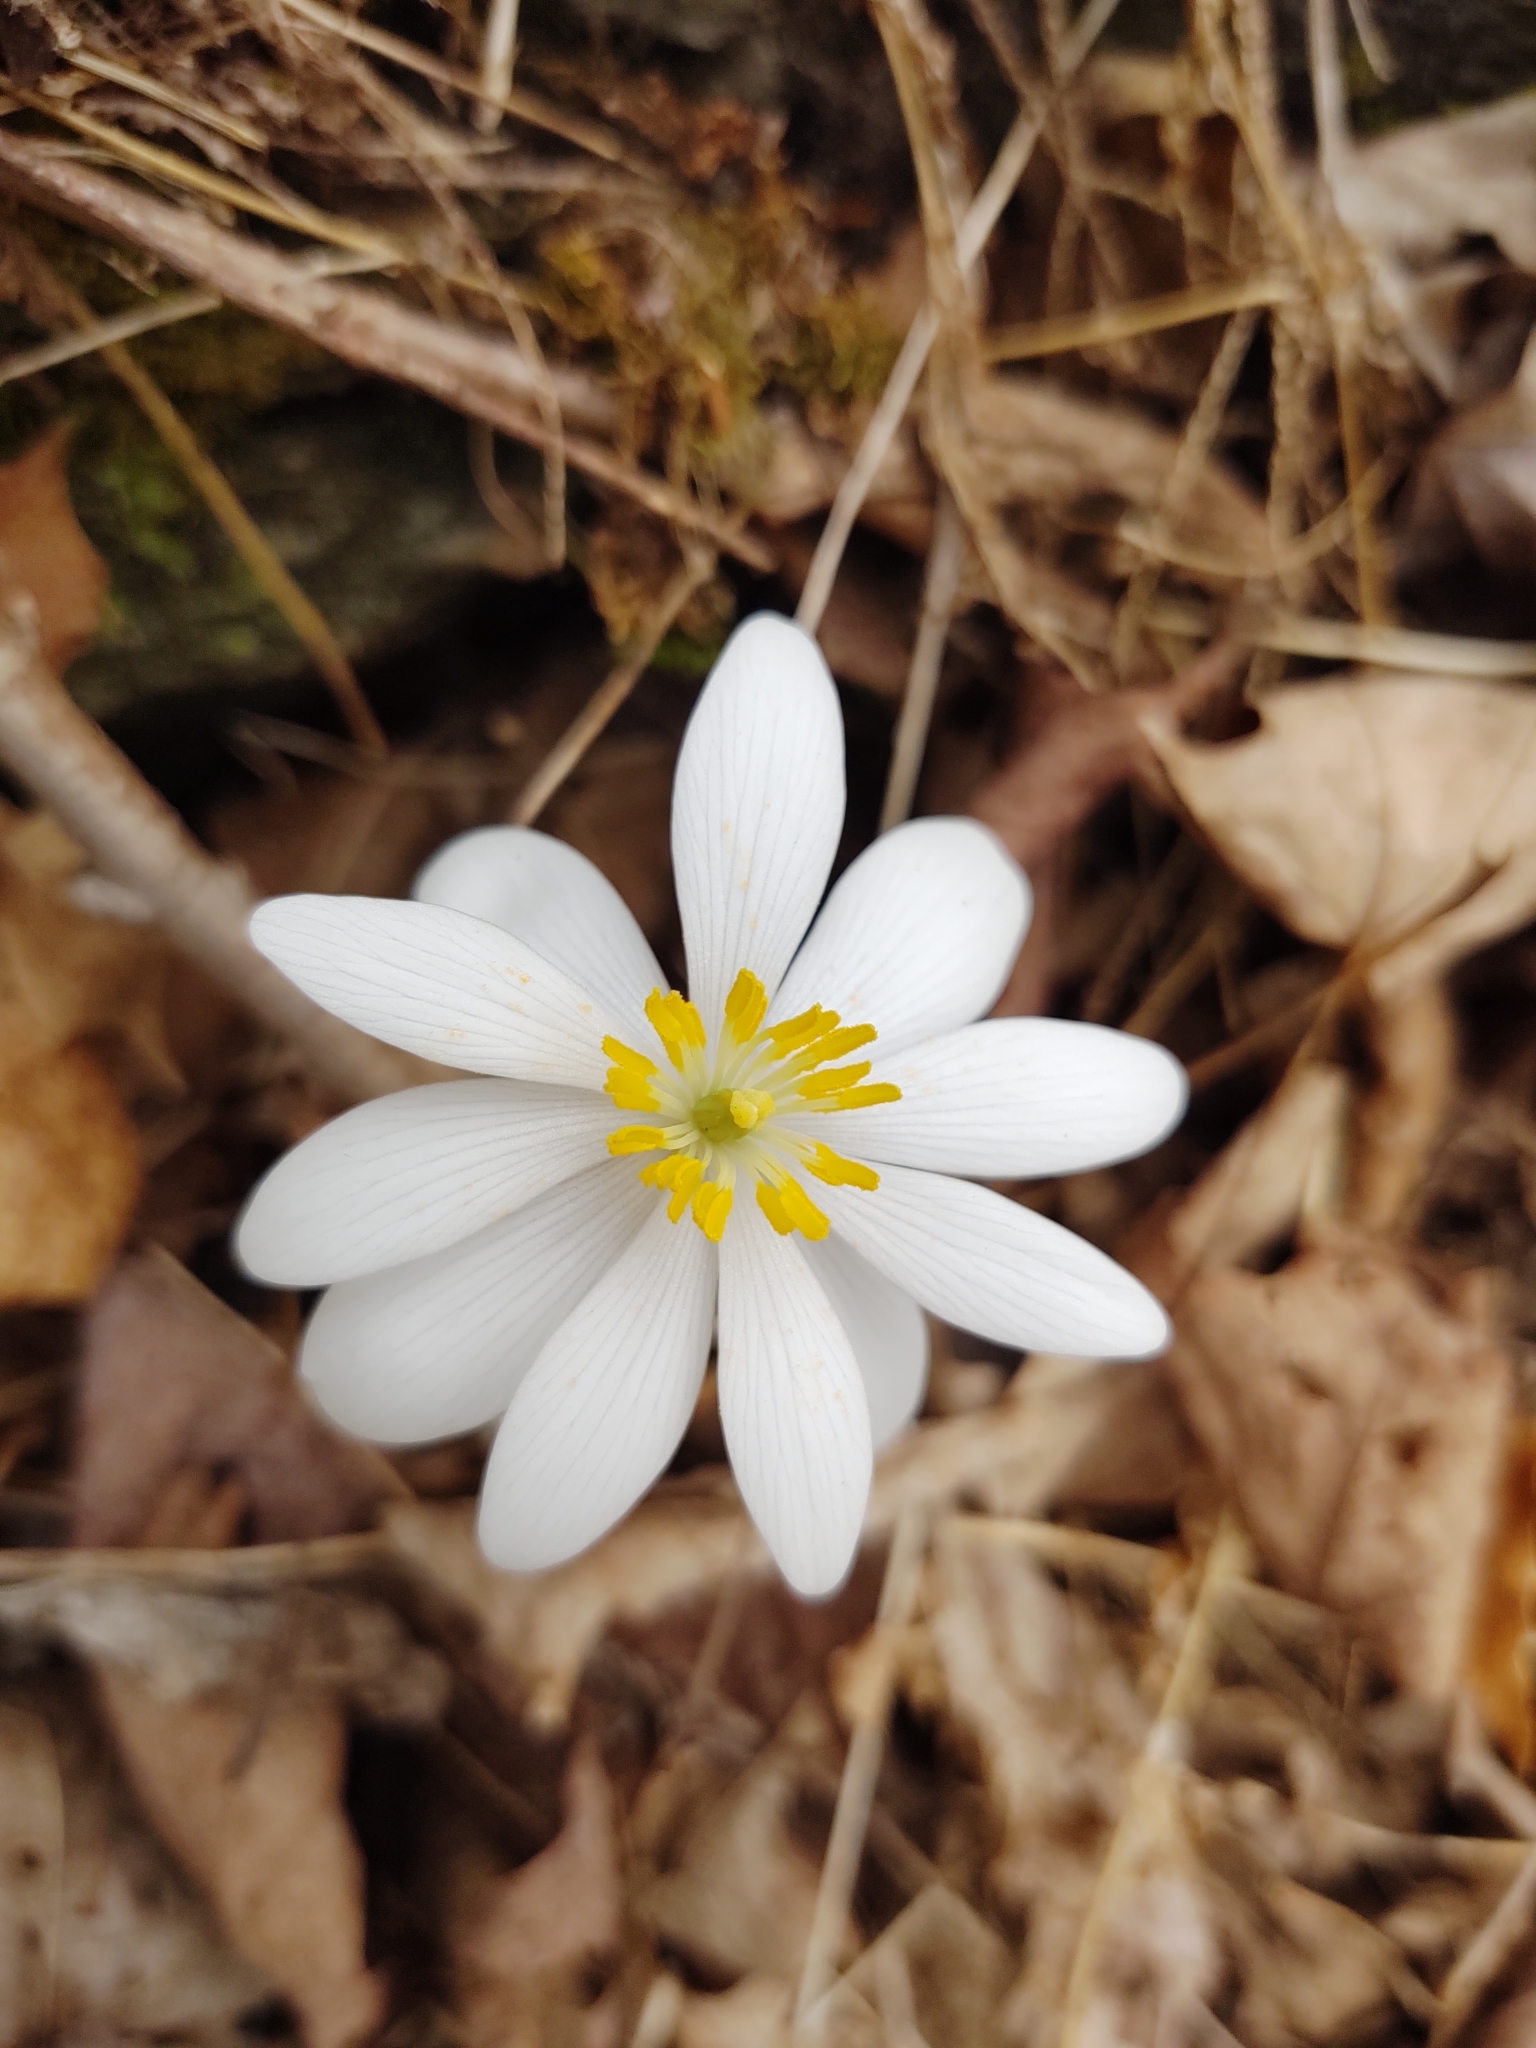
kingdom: Plantae
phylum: Tracheophyta
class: Magnoliopsida
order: Ranunculales
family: Papaveraceae
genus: Sanguinaria
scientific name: Sanguinaria canadensis
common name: Bloodroot
